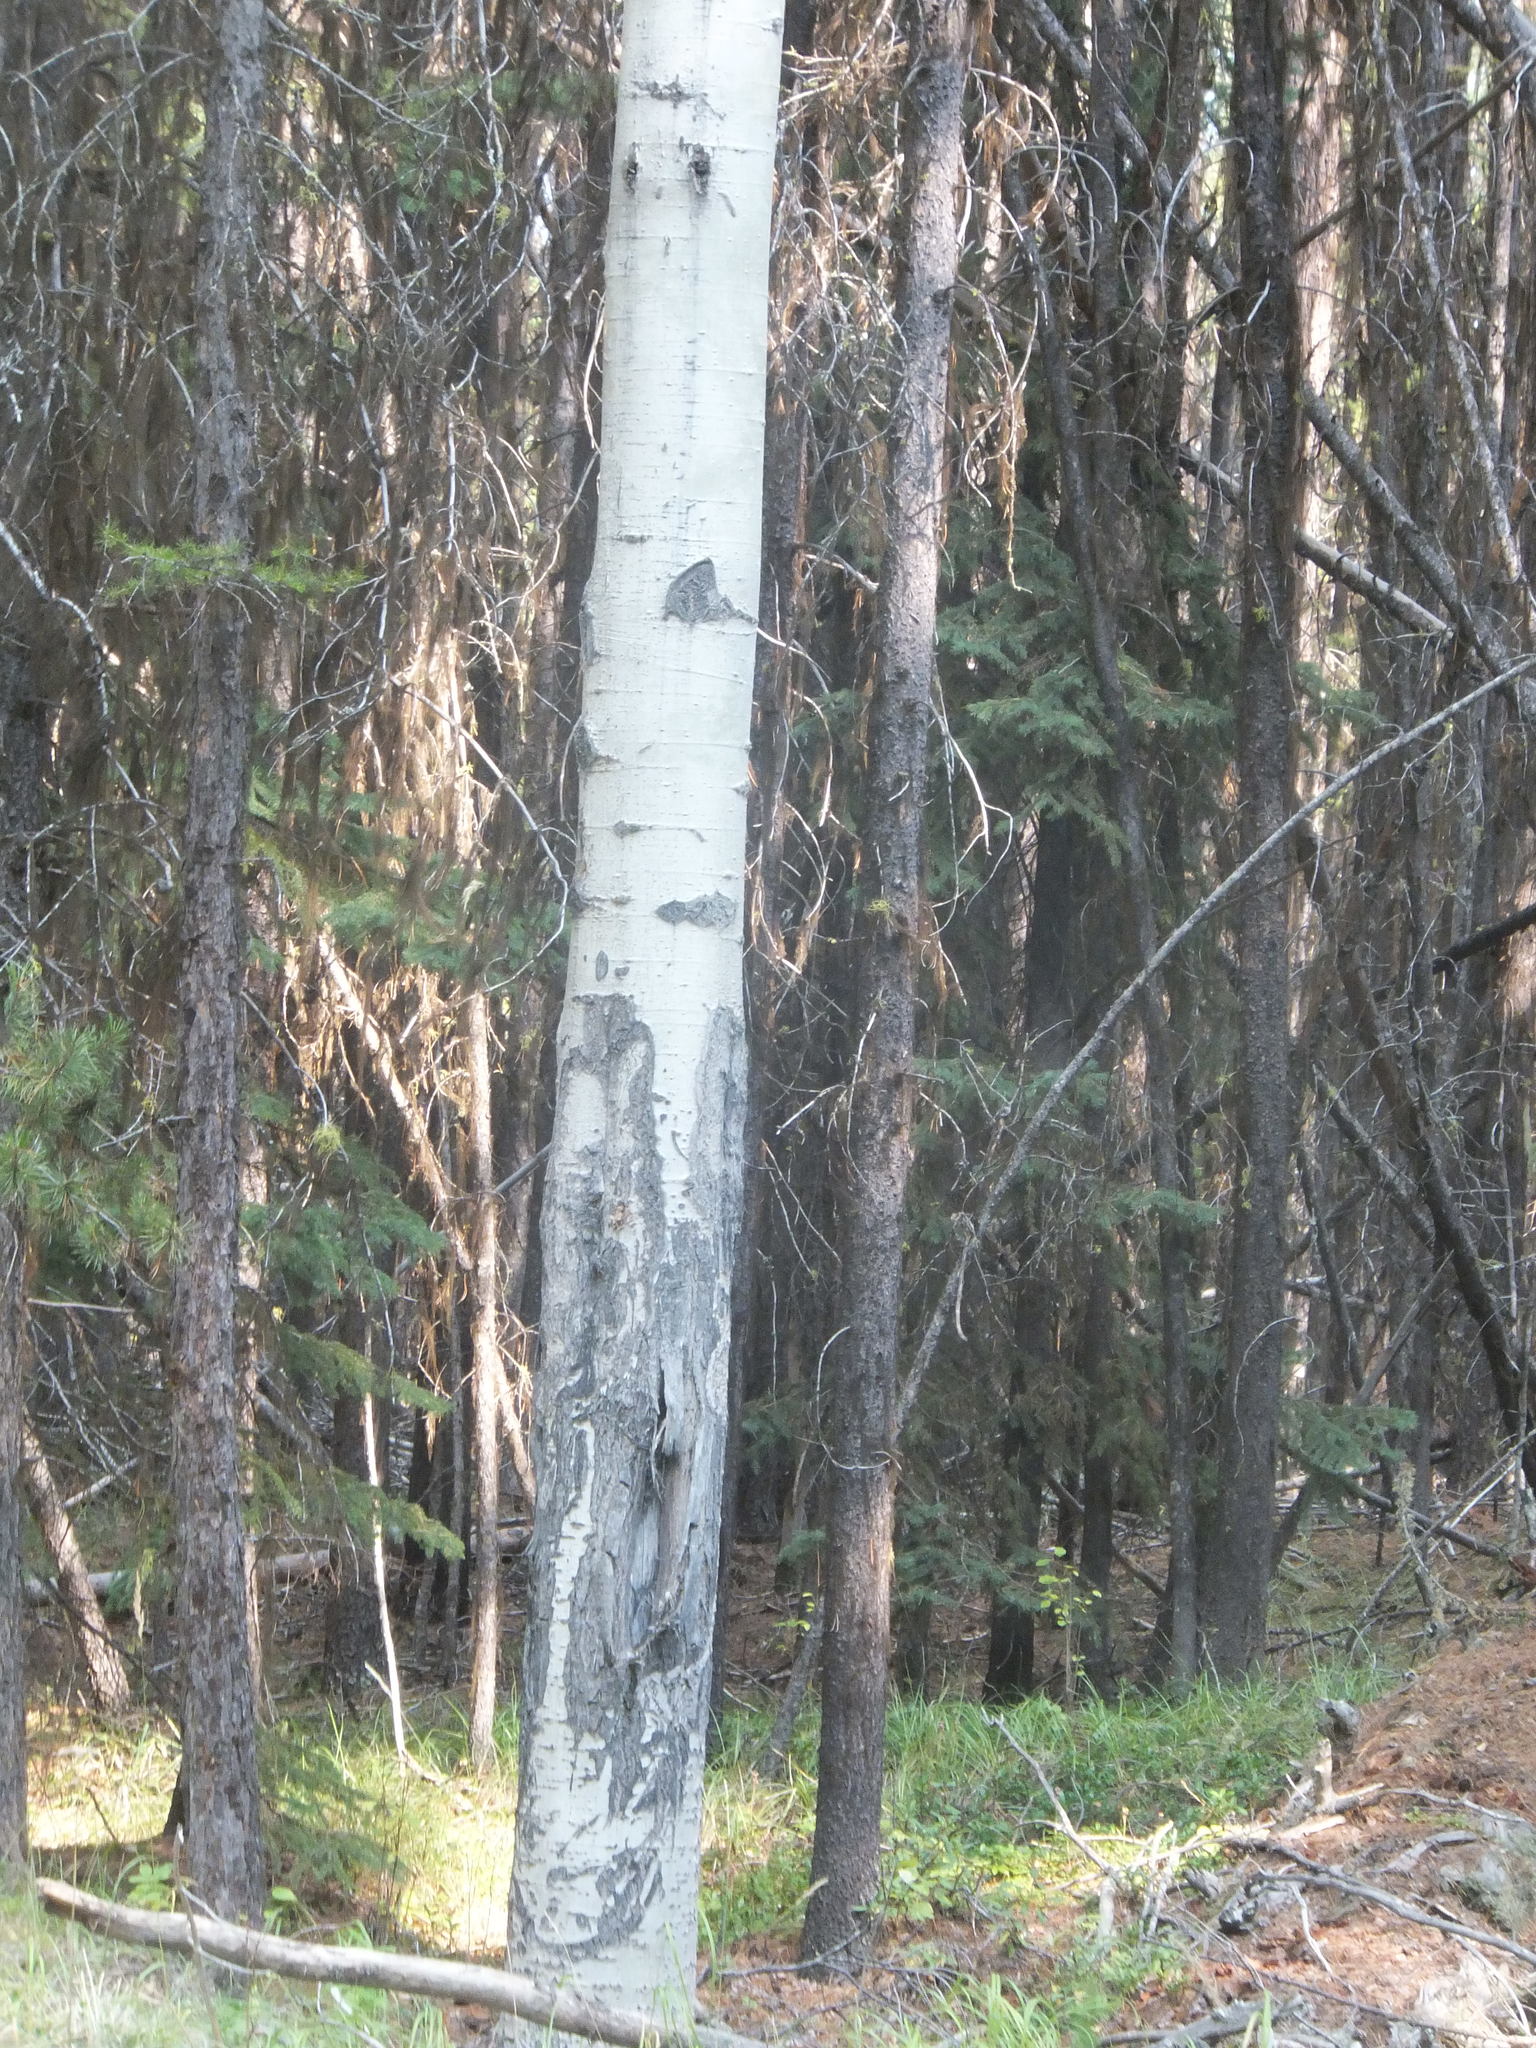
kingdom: Plantae
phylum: Tracheophyta
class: Magnoliopsida
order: Malpighiales
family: Salicaceae
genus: Populus
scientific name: Populus tremuloides
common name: Quaking aspen
